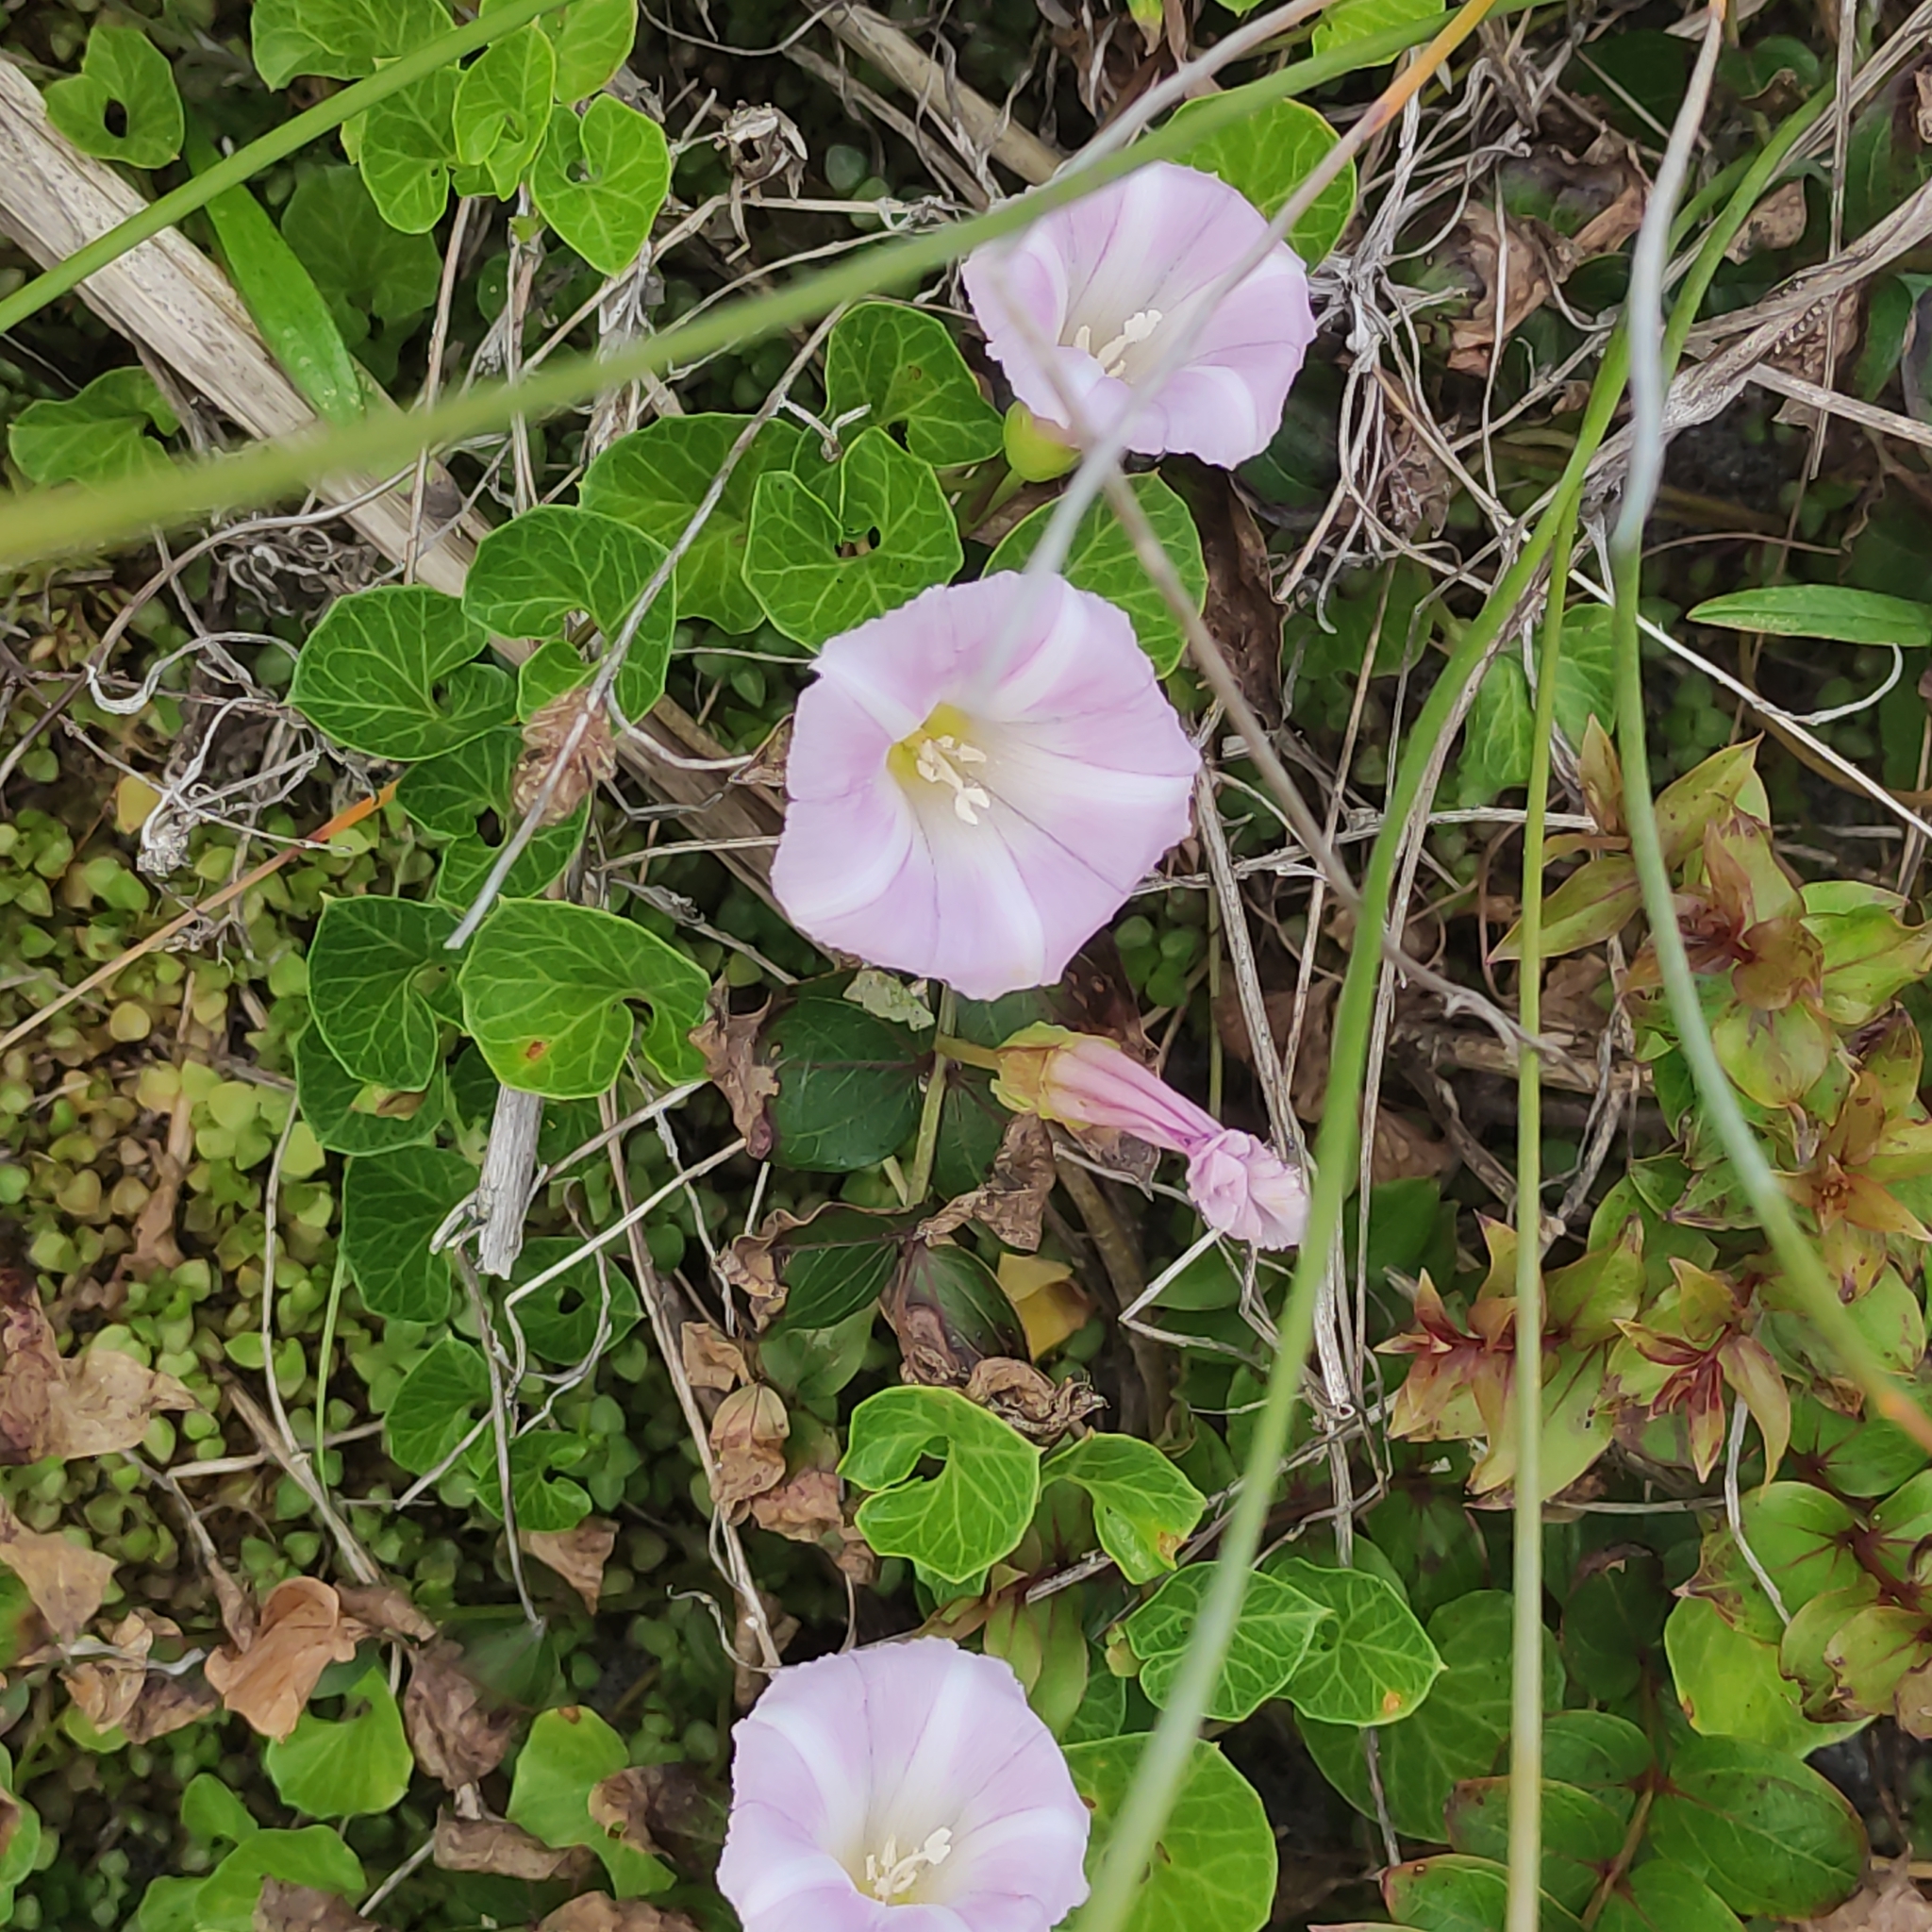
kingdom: Plantae
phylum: Tracheophyta
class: Magnoliopsida
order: Solanales
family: Convolvulaceae
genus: Calystegia
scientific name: Calystegia soldanella
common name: Sea bindweed
